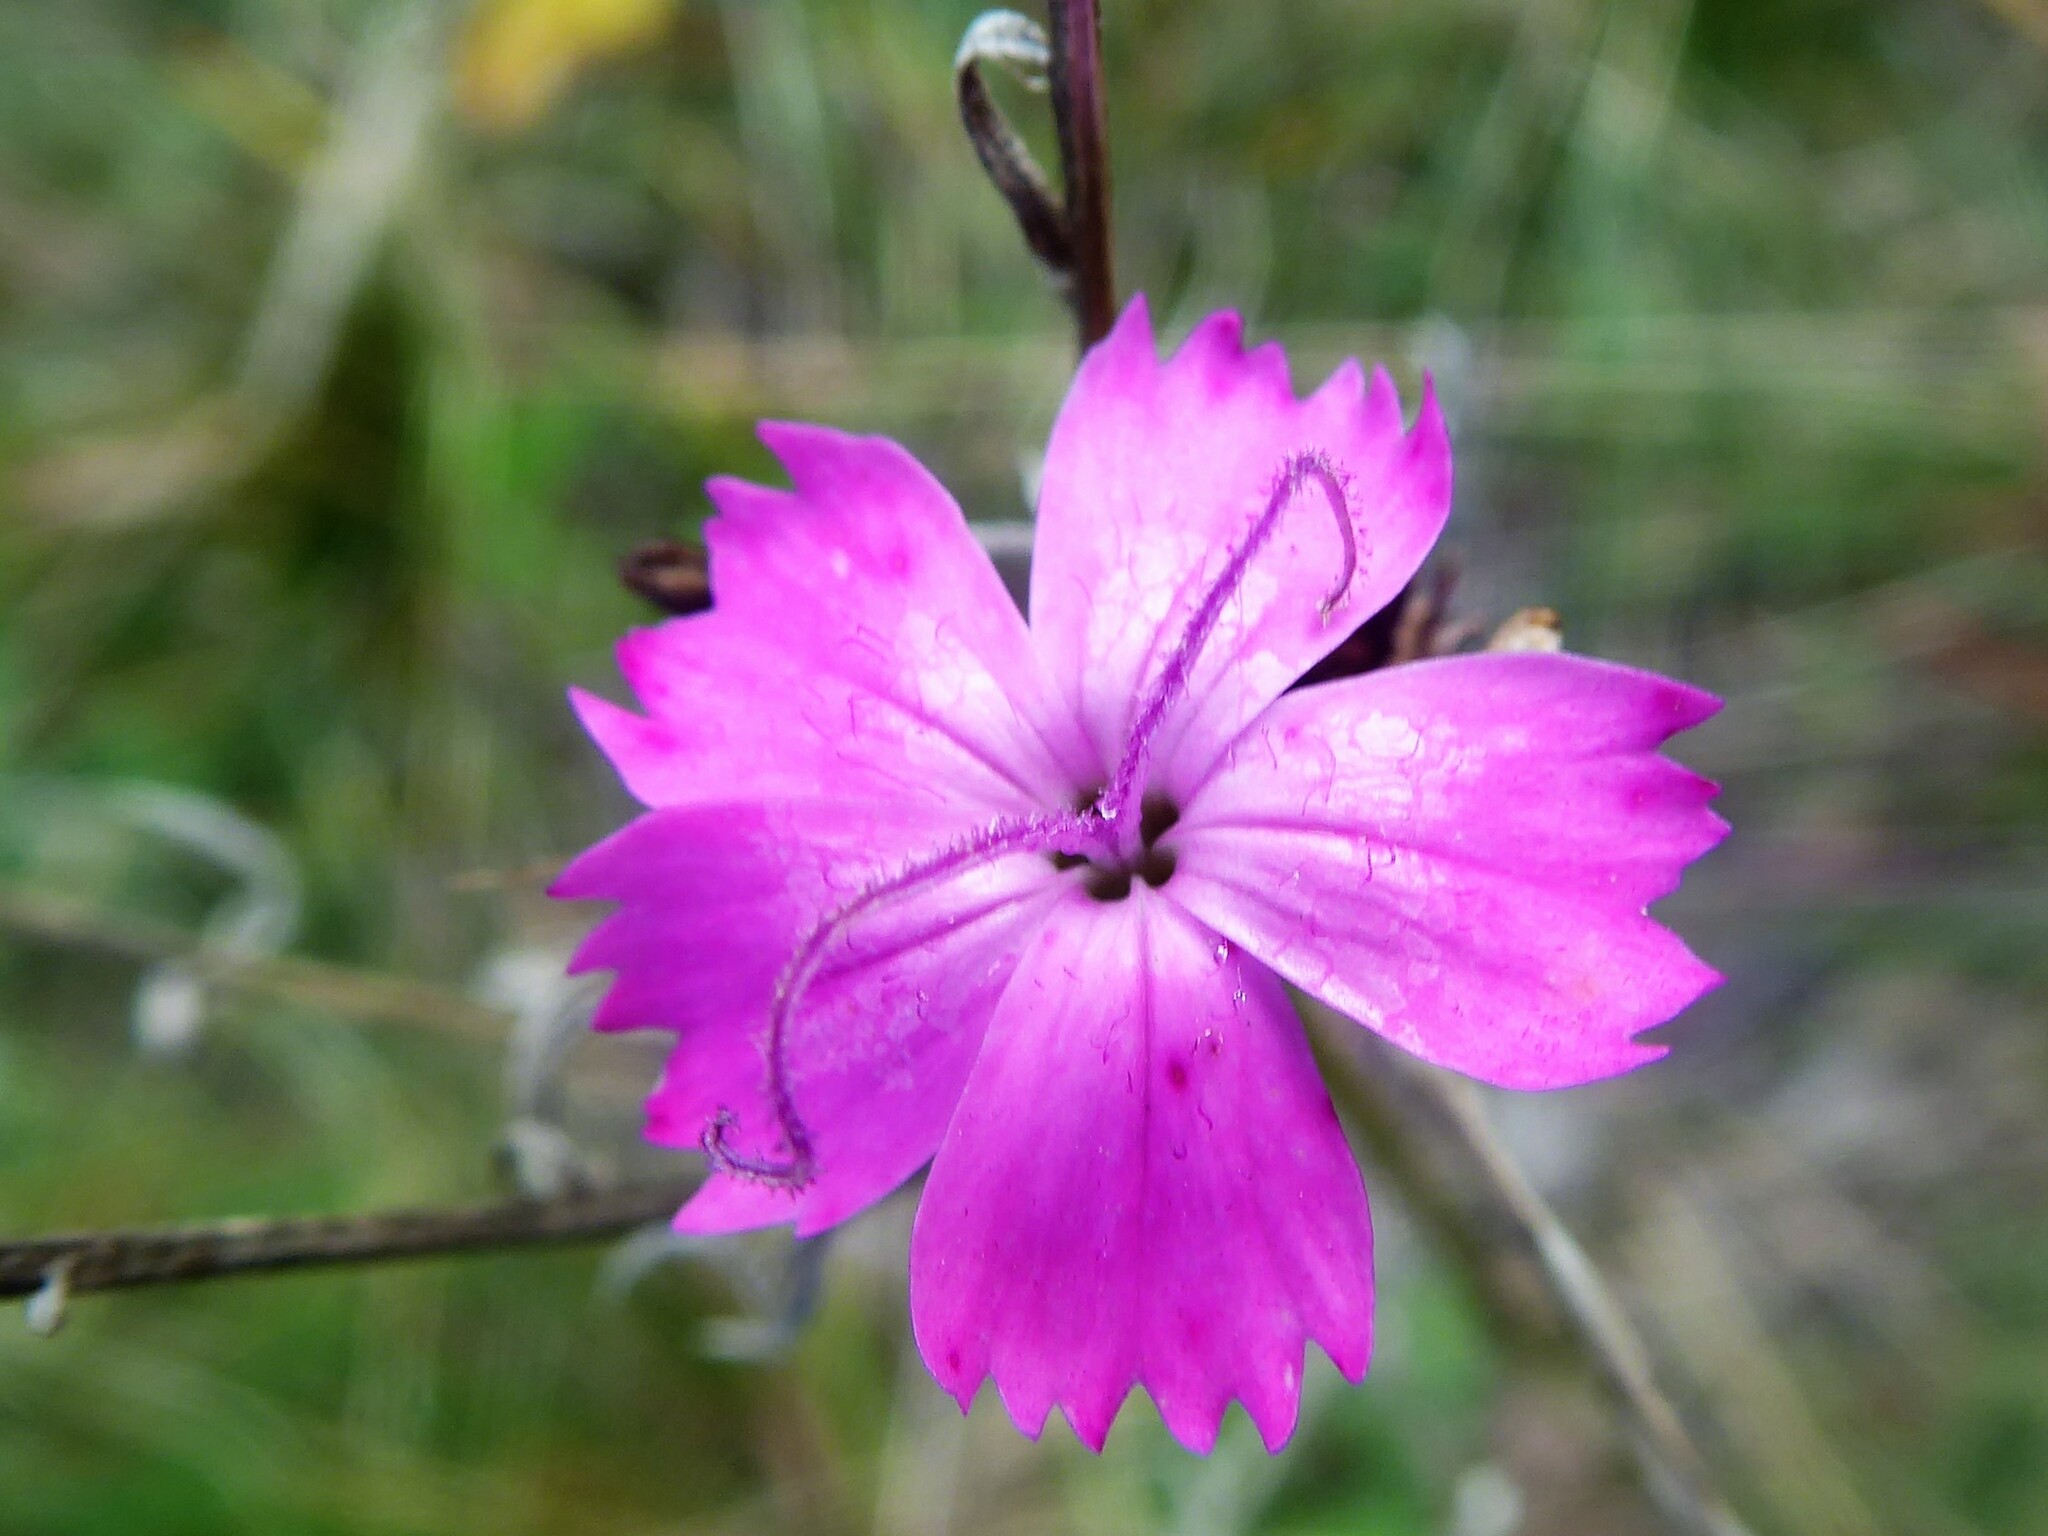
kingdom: Plantae
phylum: Tracheophyta
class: Magnoliopsida
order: Caryophyllales
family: Caryophyllaceae
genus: Dianthus
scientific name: Dianthus carthusianorum
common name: Carthusian pink
